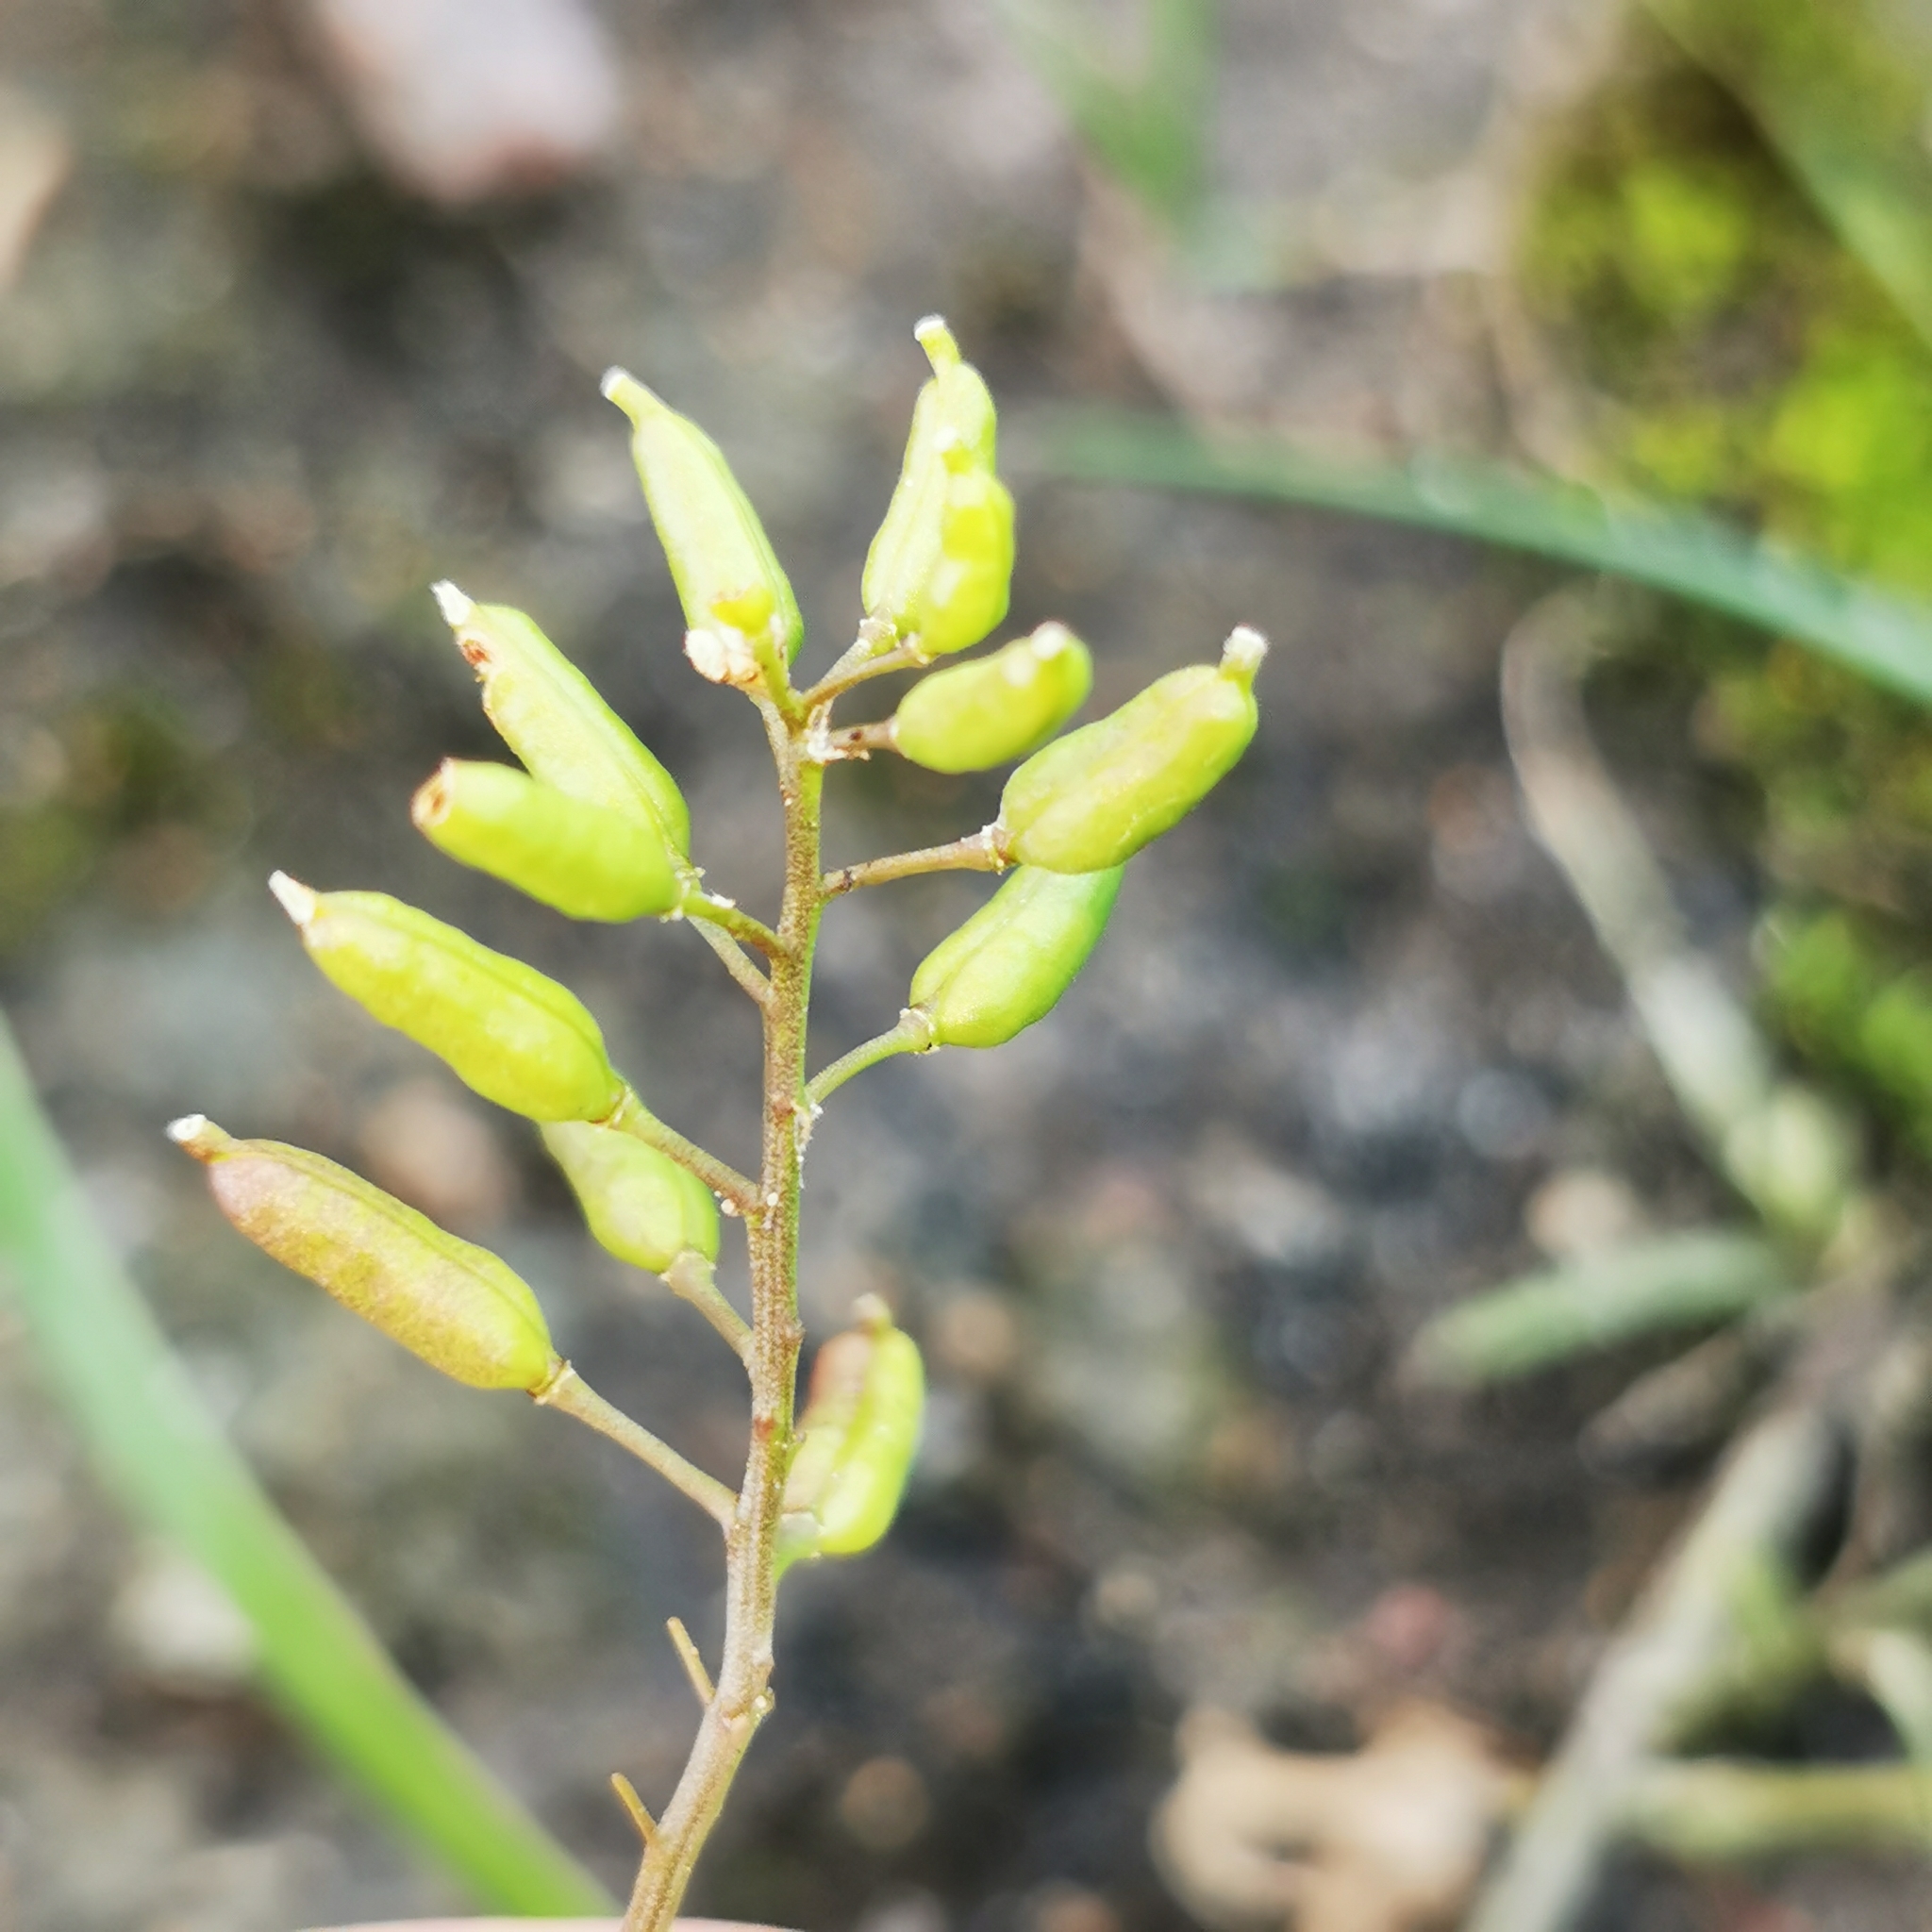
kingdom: Plantae
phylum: Tracheophyta
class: Magnoliopsida
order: Brassicales
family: Brassicaceae
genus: Rorippa
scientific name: Rorippa palustris
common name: Marsh yellow-cress
